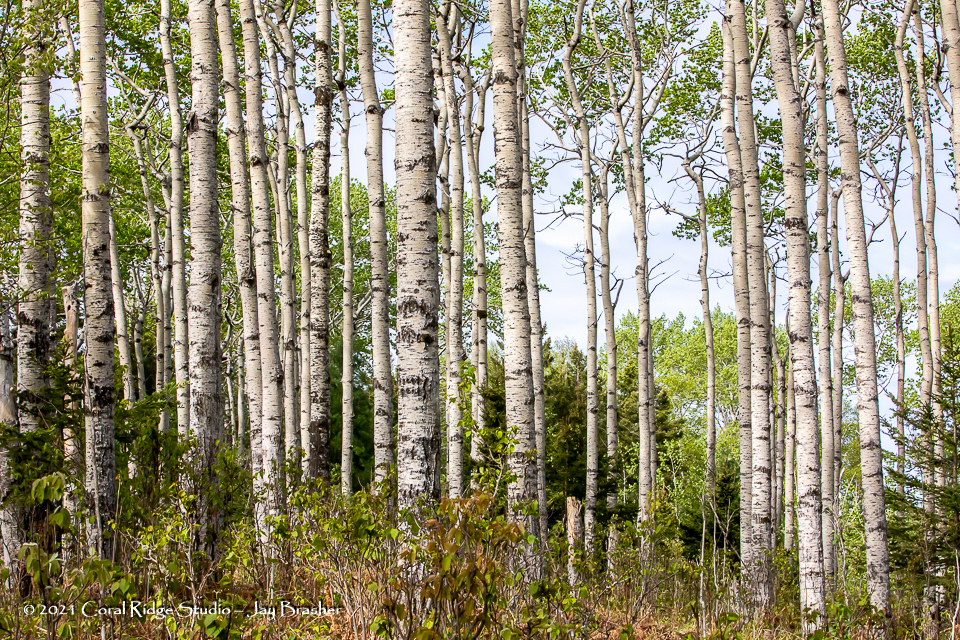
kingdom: Plantae
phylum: Tracheophyta
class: Magnoliopsida
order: Malpighiales
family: Salicaceae
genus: Populus
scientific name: Populus tremuloides
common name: Quaking aspen
